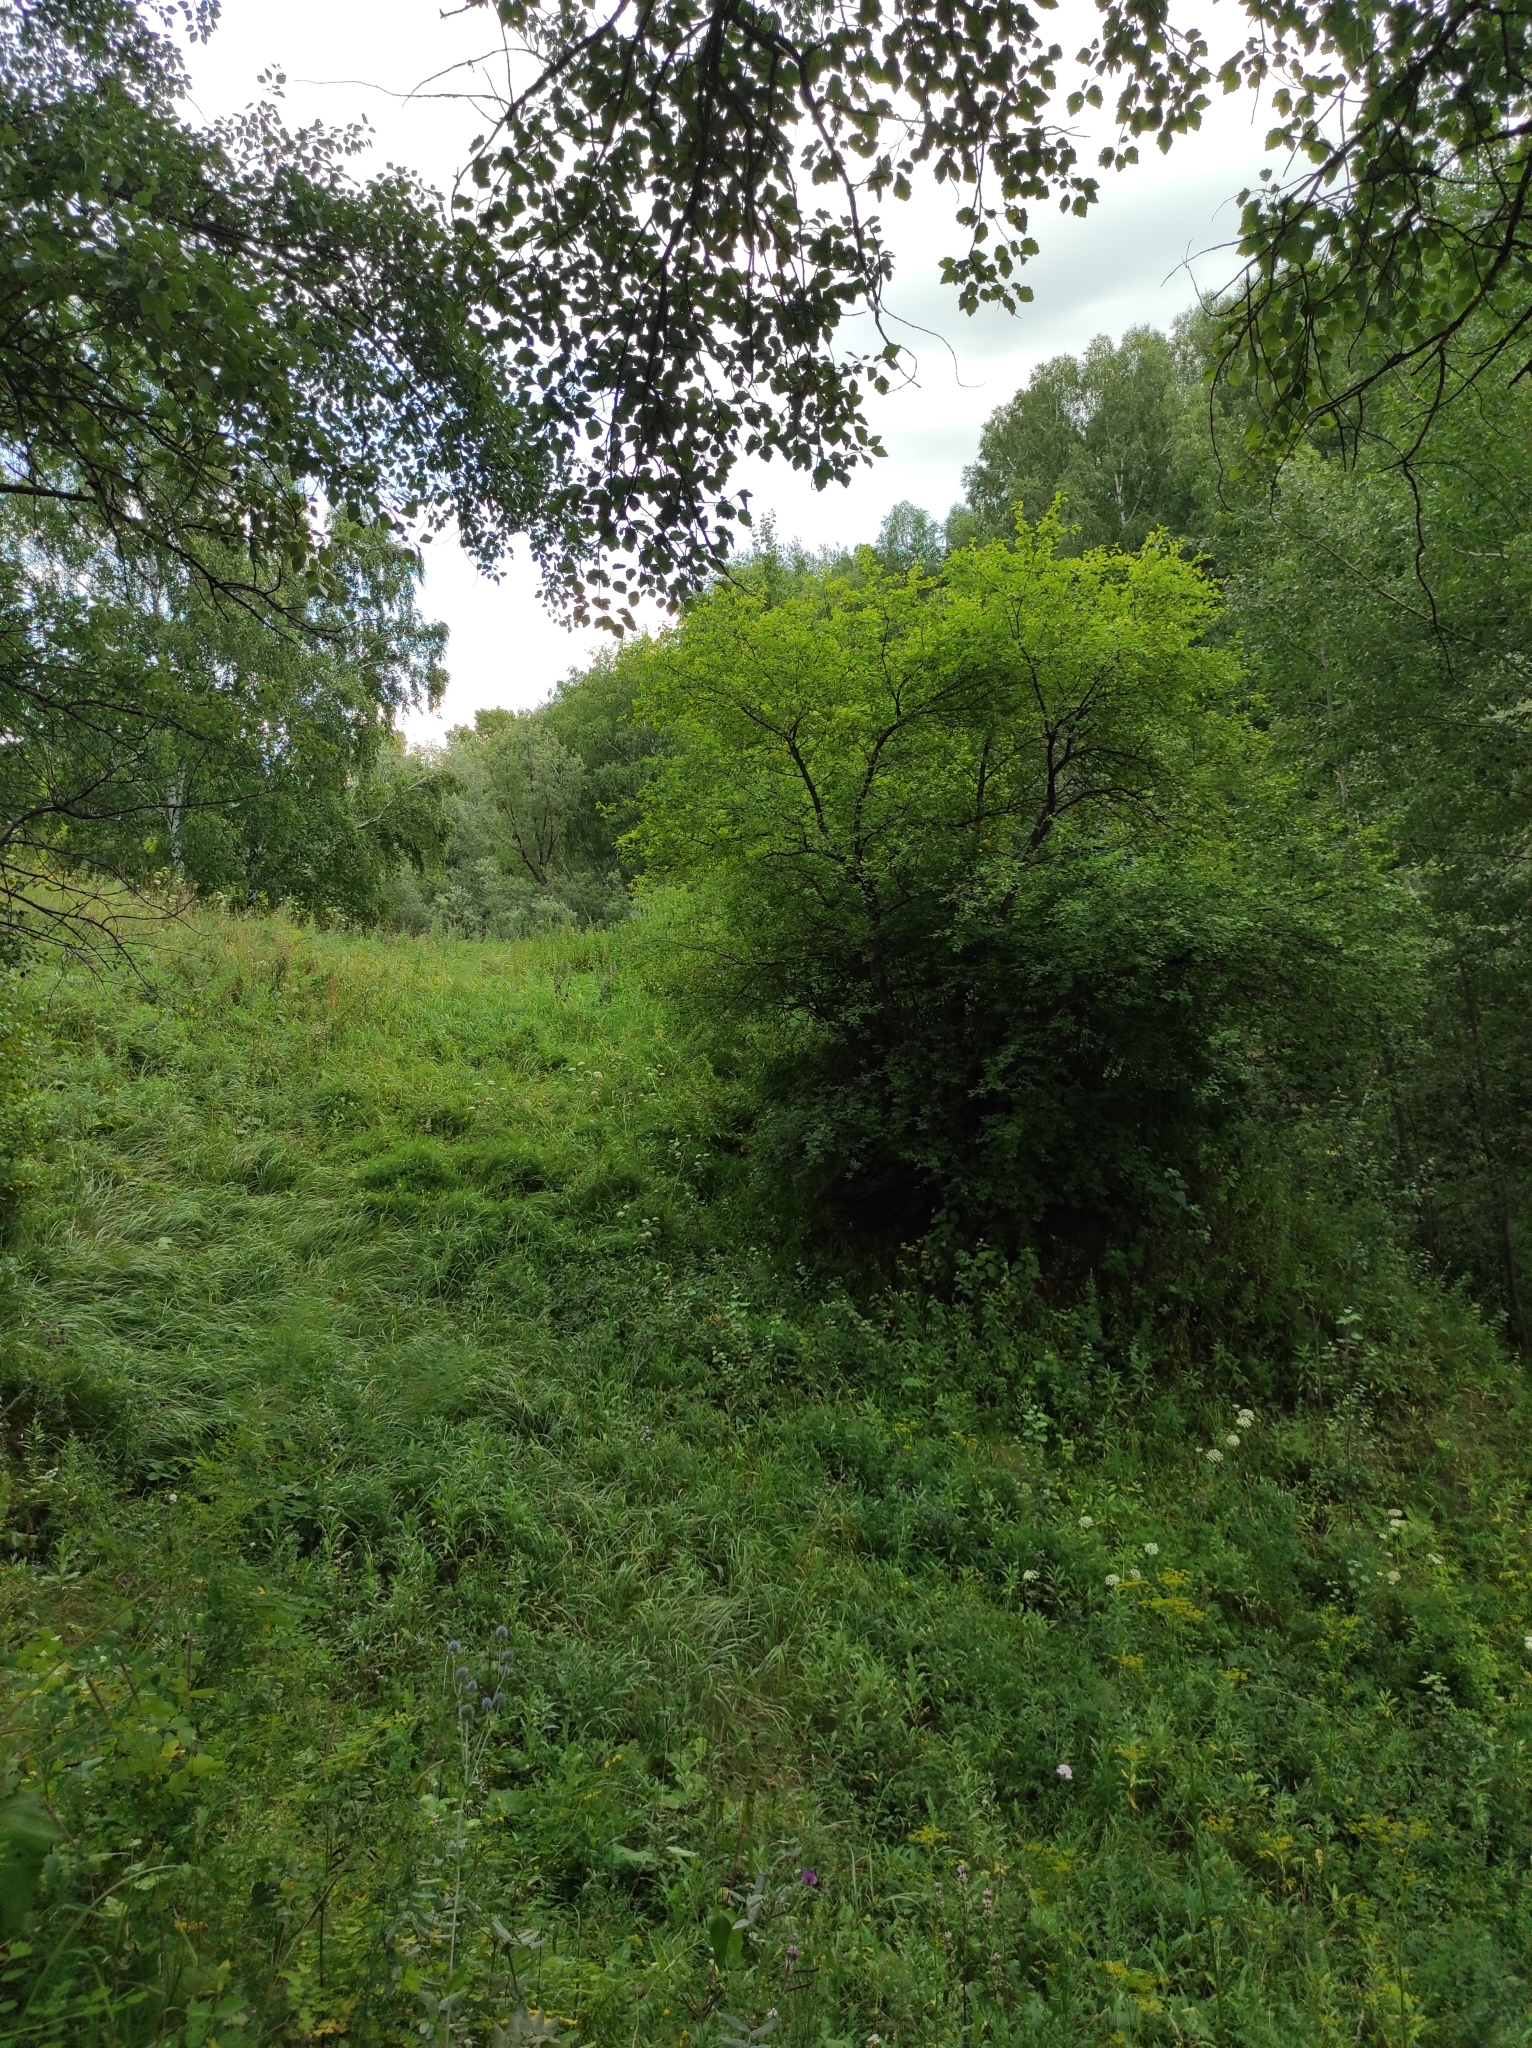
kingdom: Plantae
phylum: Tracheophyta
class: Magnoliopsida
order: Fagales
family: Betulaceae
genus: Betula
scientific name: Betula pendula
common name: Silver birch
